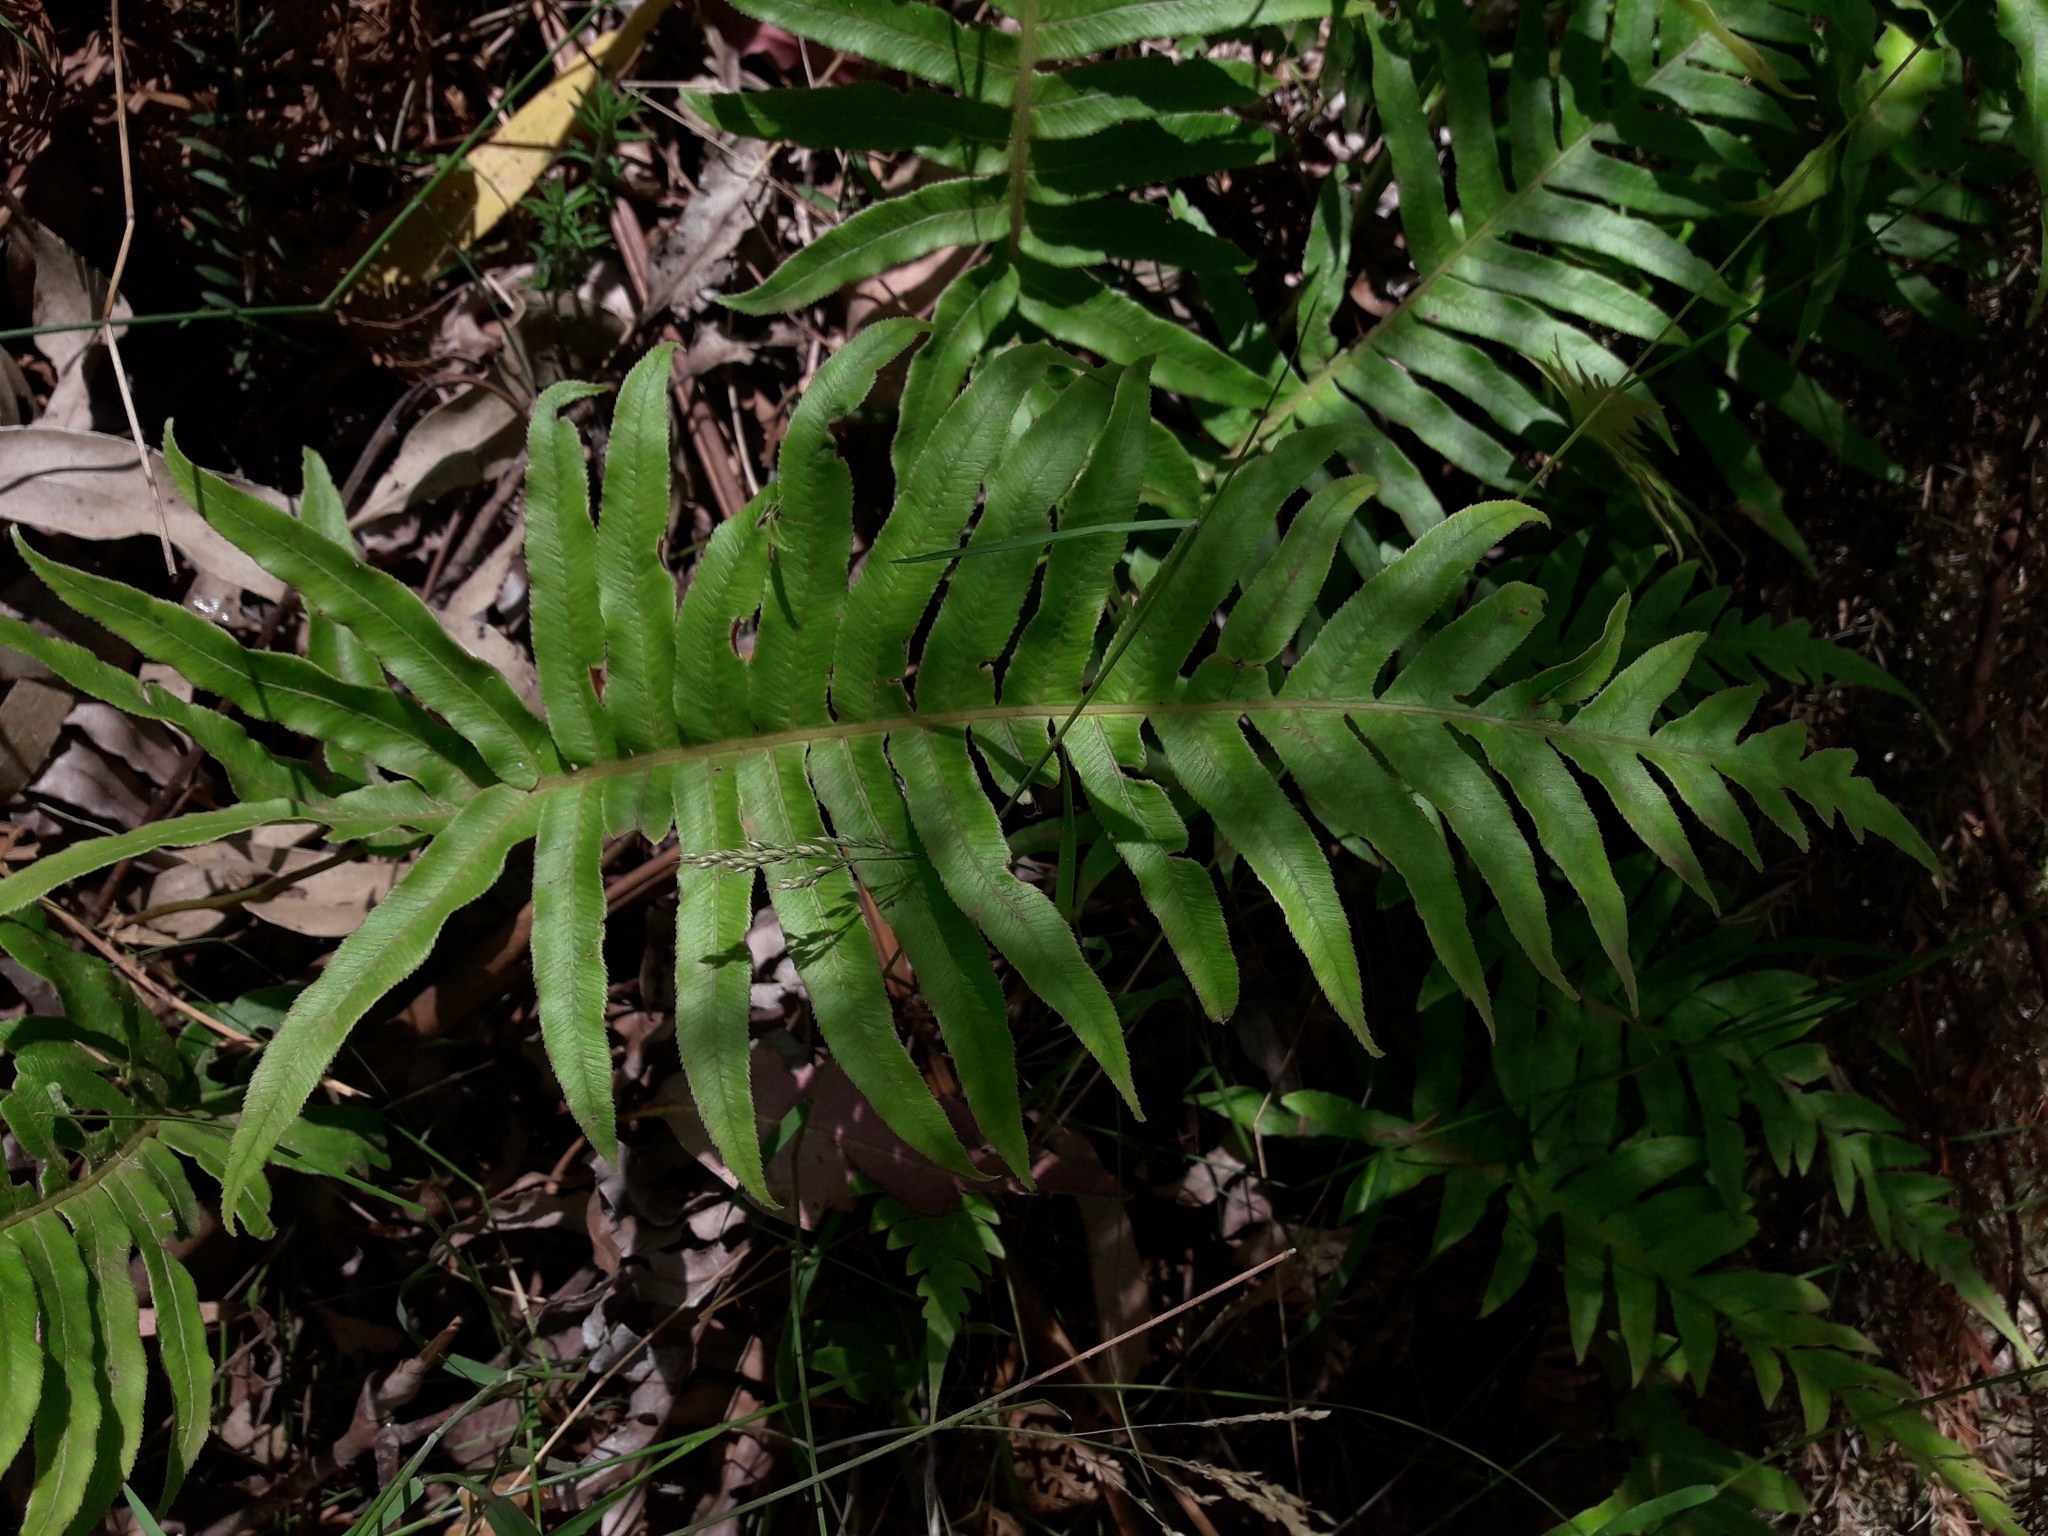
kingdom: Plantae
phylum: Tracheophyta
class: Polypodiopsida
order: Polypodiales
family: Blechnaceae
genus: Oceaniopteris
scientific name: Oceaniopteris cartilaginea
